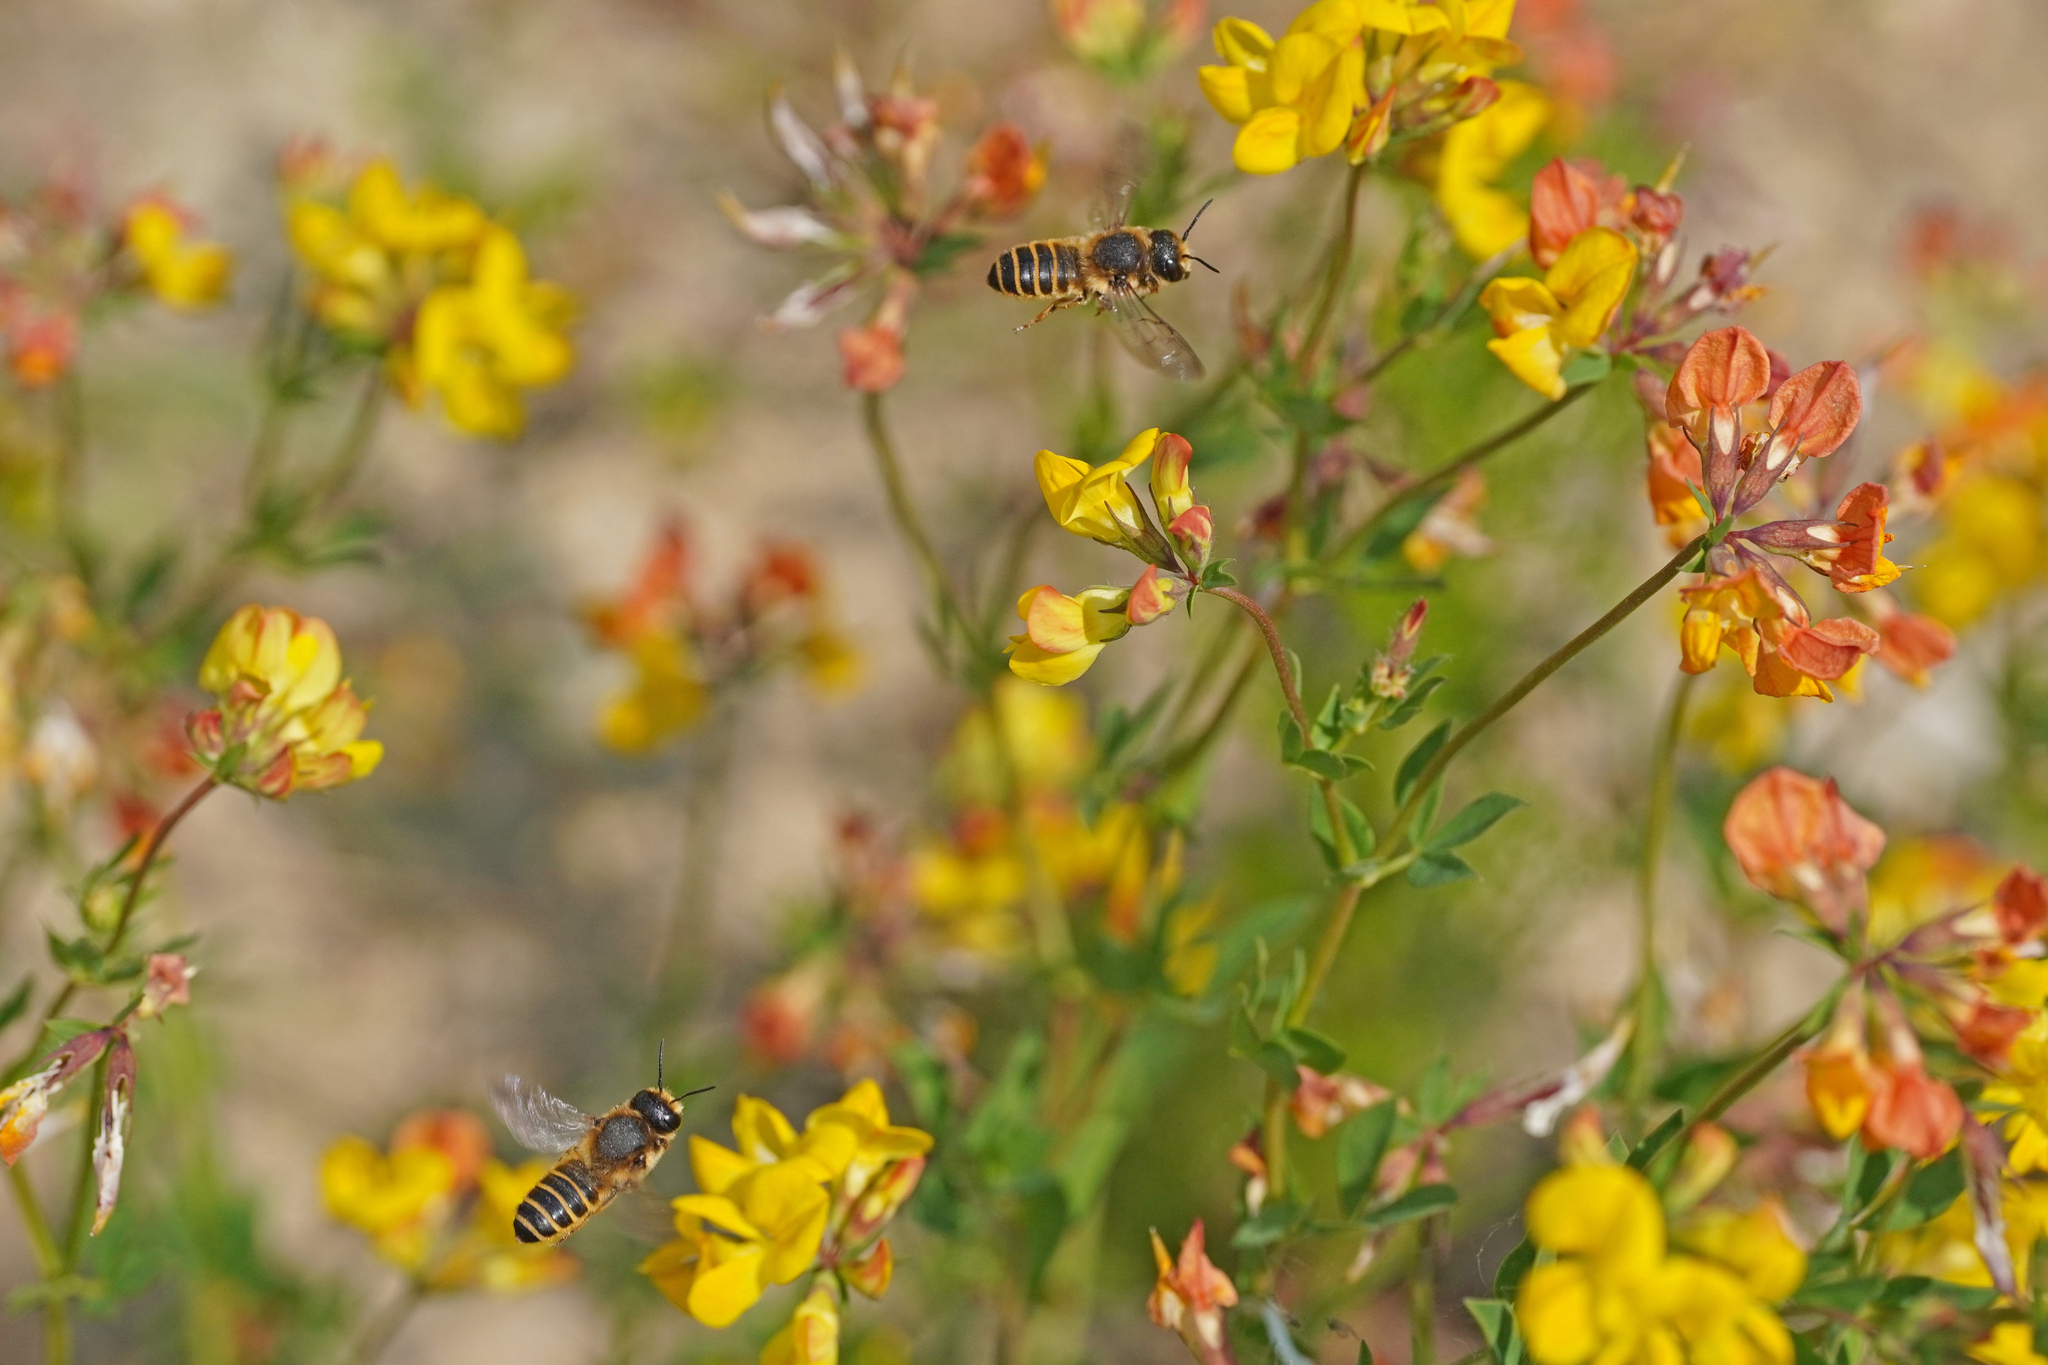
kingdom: Animalia
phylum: Arthropoda
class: Insecta
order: Hymenoptera
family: Megachilidae
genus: Megachile
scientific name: Megachile ericetorum
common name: Leafcutter bee
